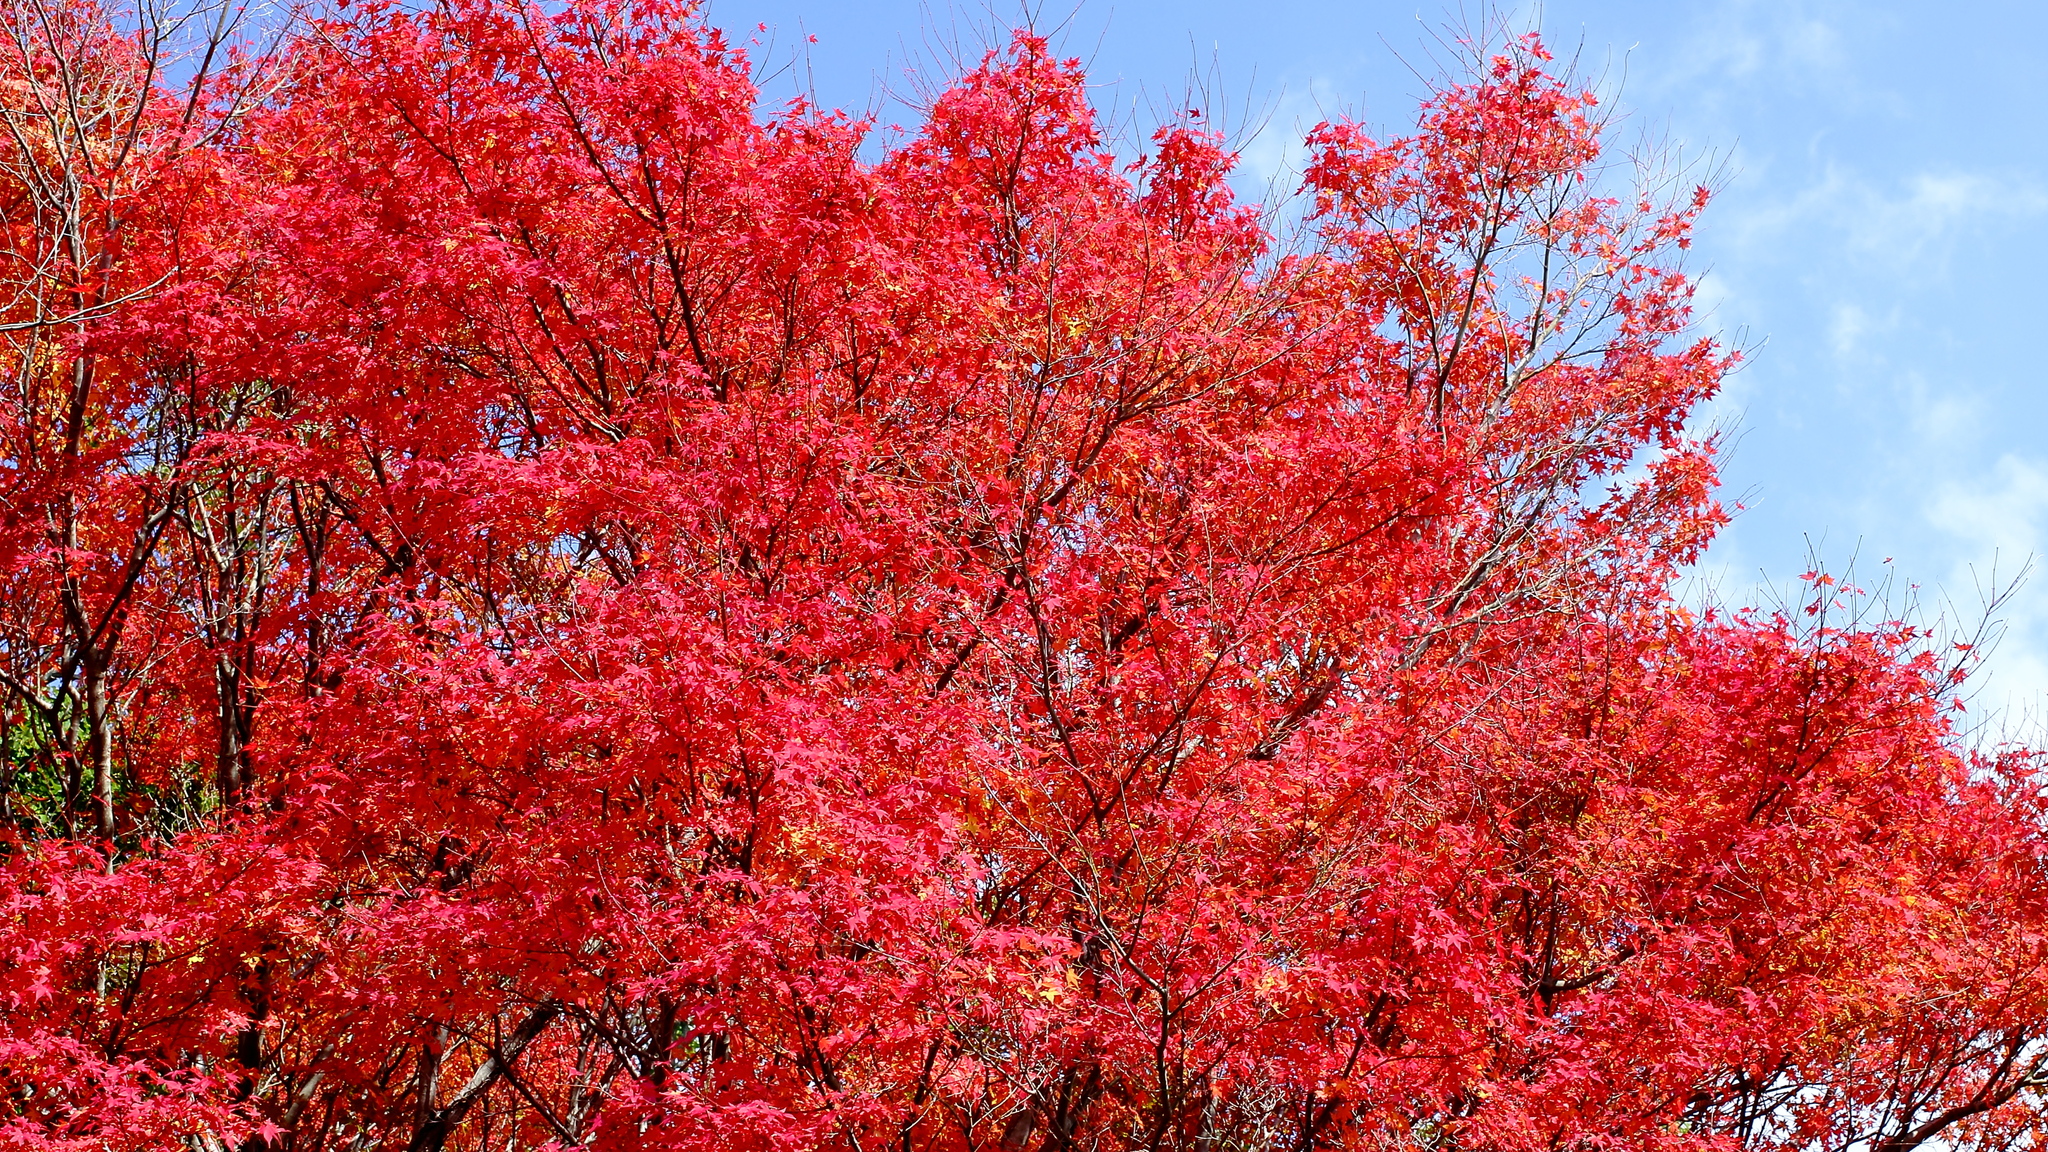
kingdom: Plantae
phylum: Tracheophyta
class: Magnoliopsida
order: Sapindales
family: Sapindaceae
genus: Acer
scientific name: Acer palmatum
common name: Japanese maple
